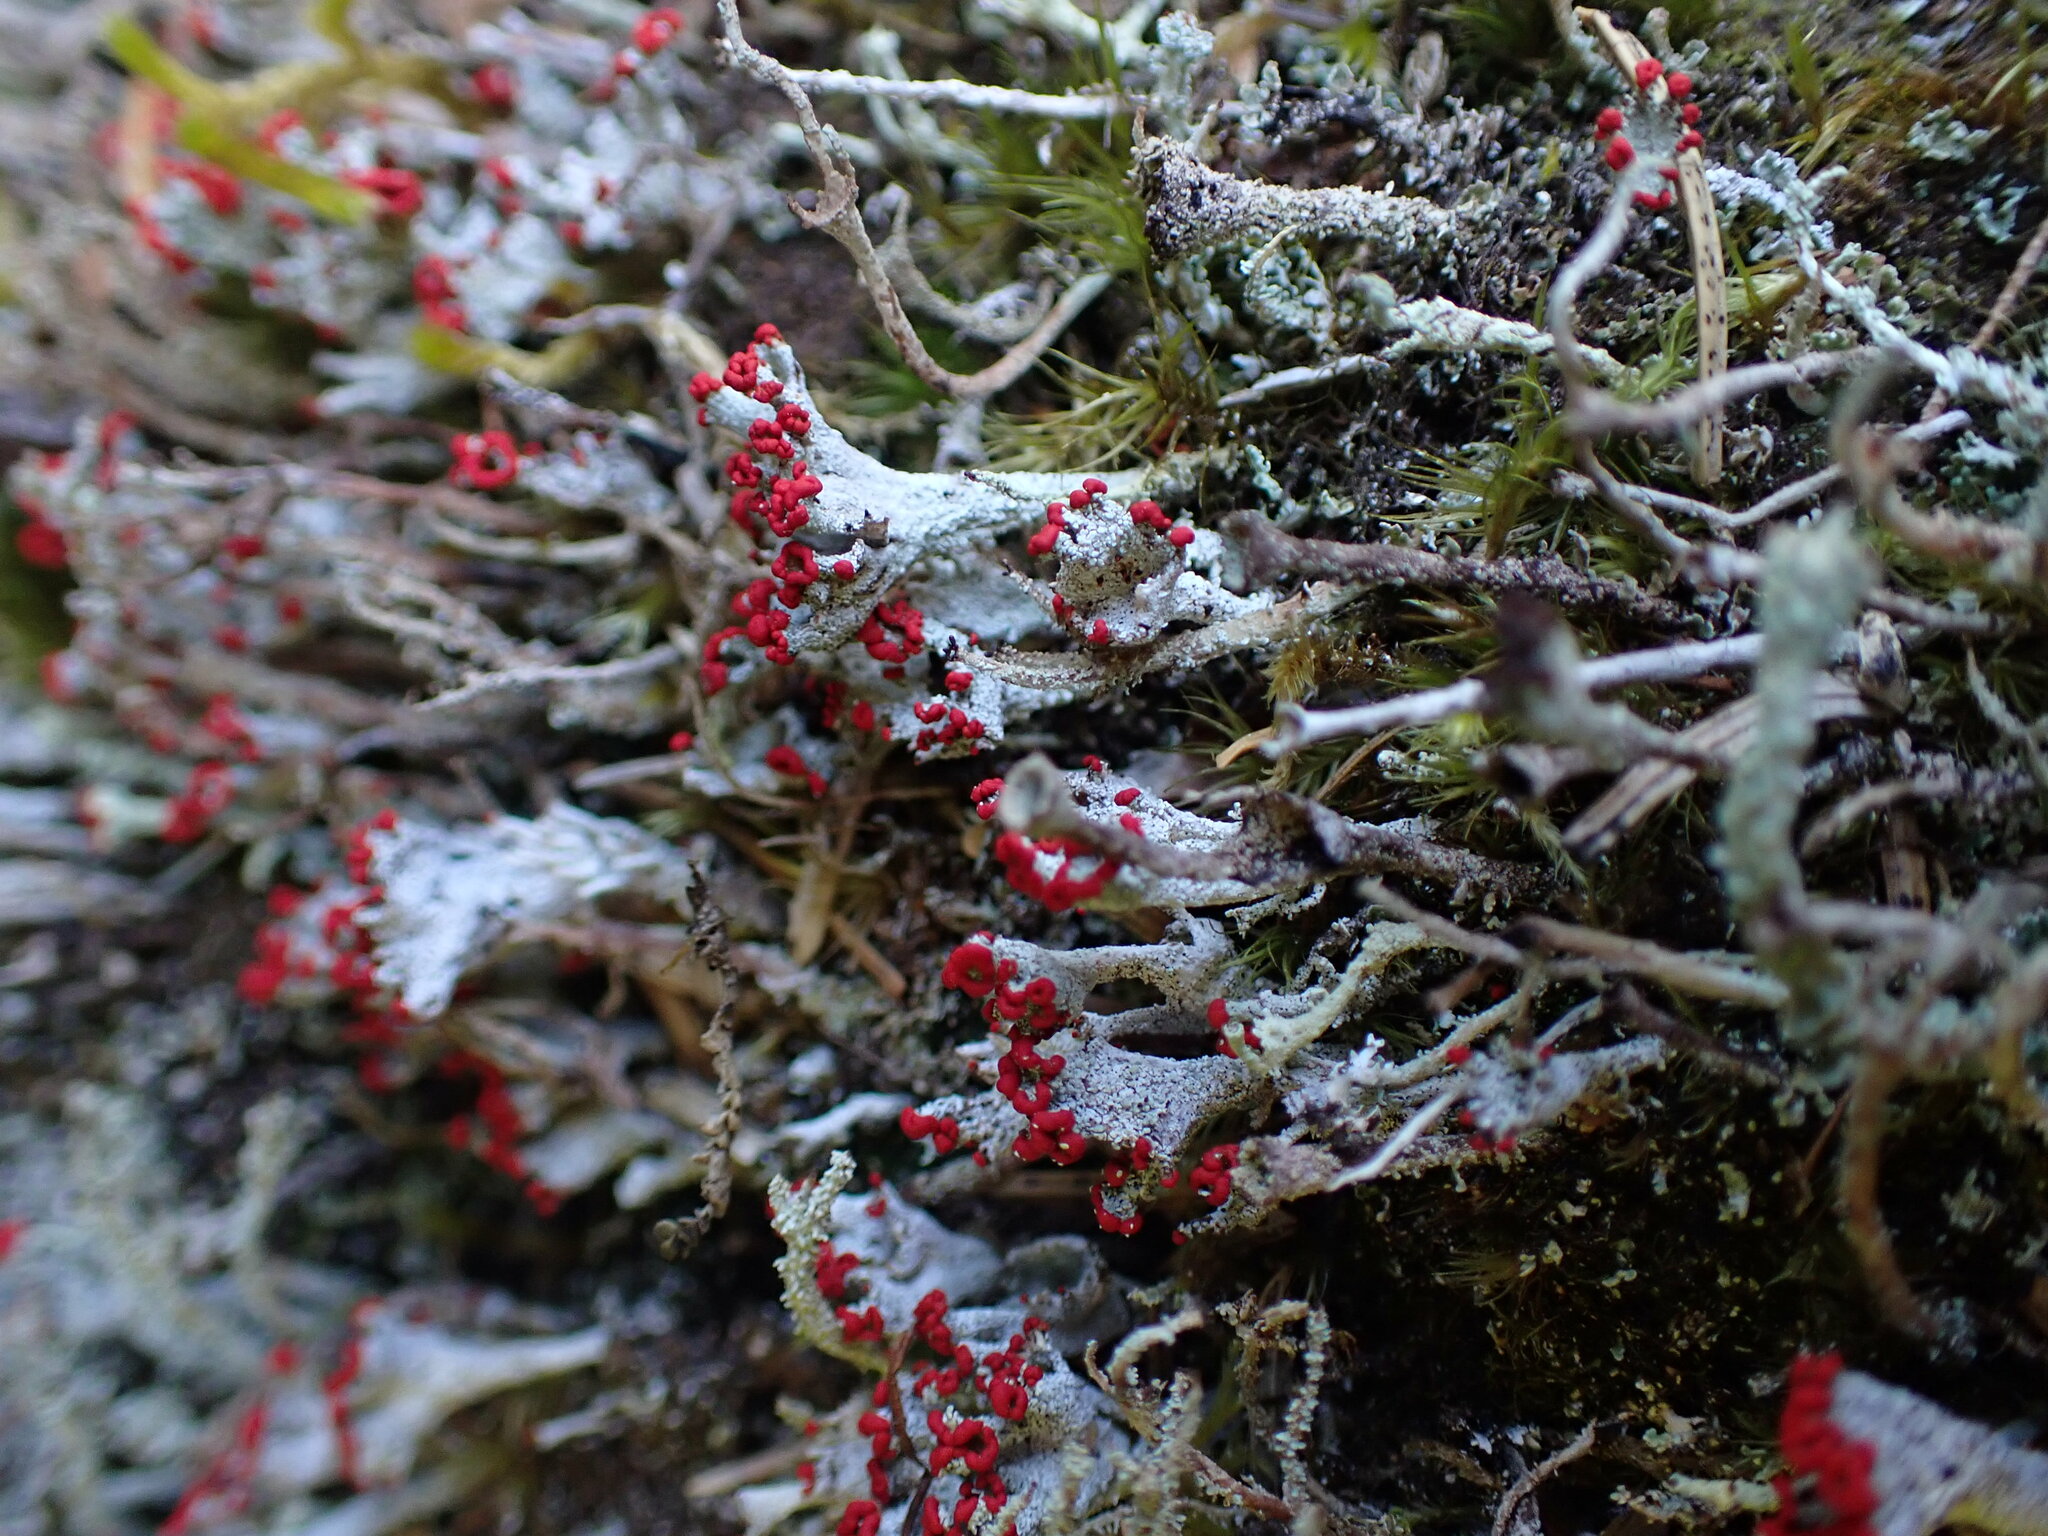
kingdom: Fungi
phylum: Ascomycota
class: Lecanoromycetes
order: Lecanorales
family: Cladoniaceae
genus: Cladonia
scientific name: Cladonia pleurota
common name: Red-fruited pixie cup
